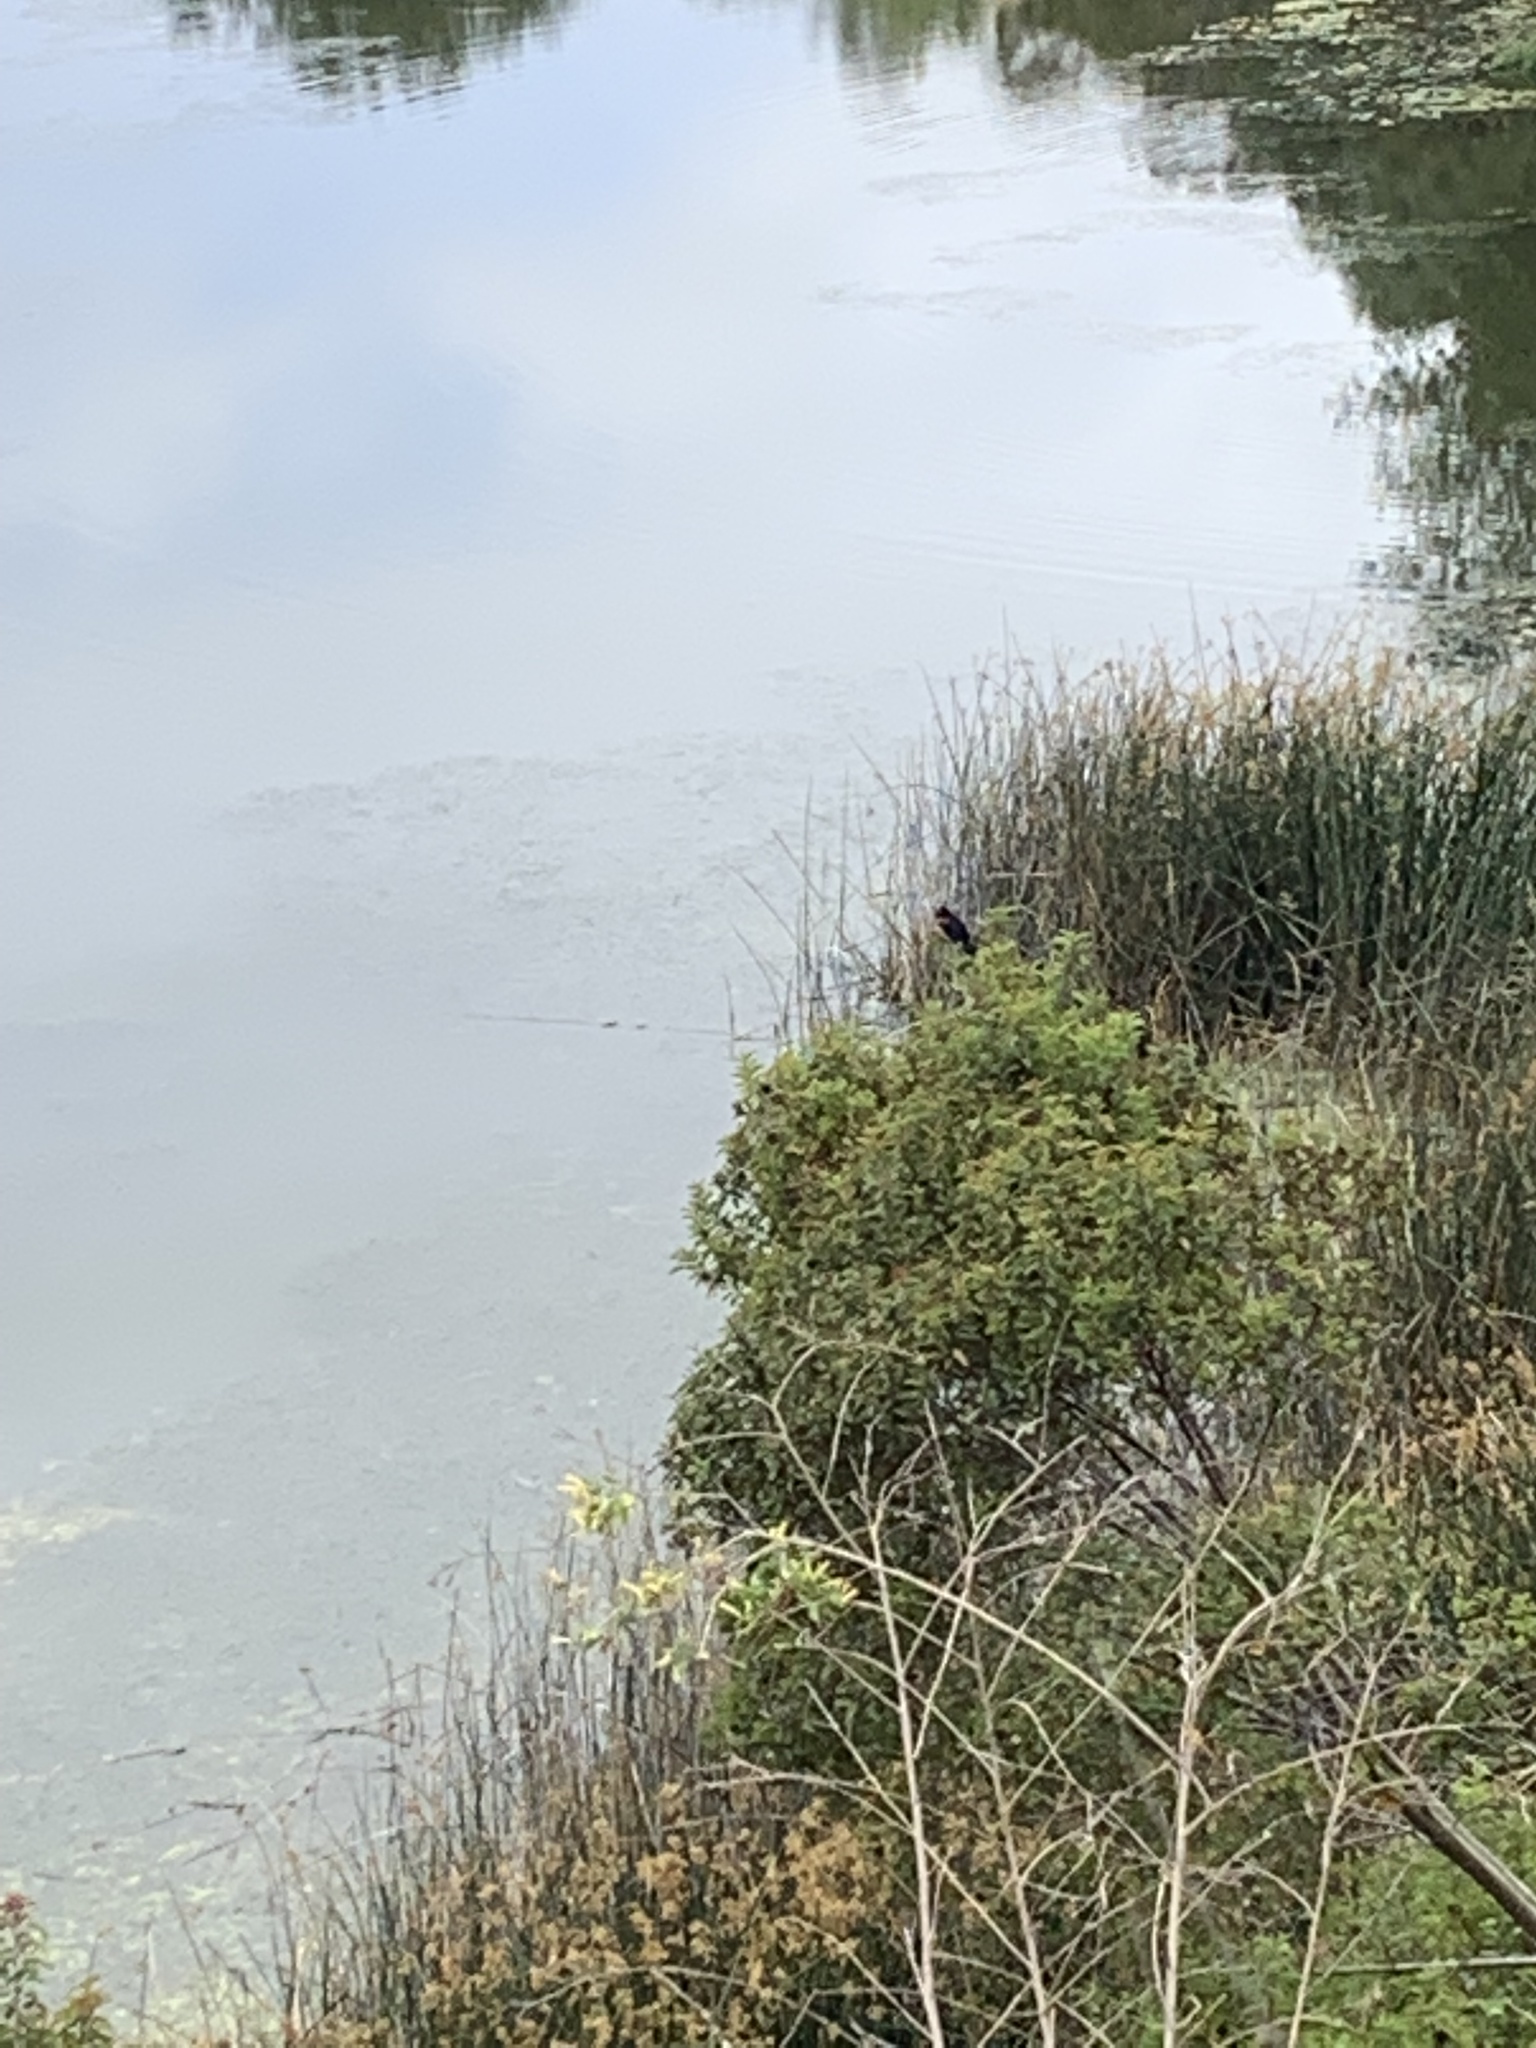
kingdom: Animalia
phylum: Chordata
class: Aves
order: Passeriformes
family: Icteridae
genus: Agelaius
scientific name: Agelaius phoeniceus
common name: Red-winged blackbird
